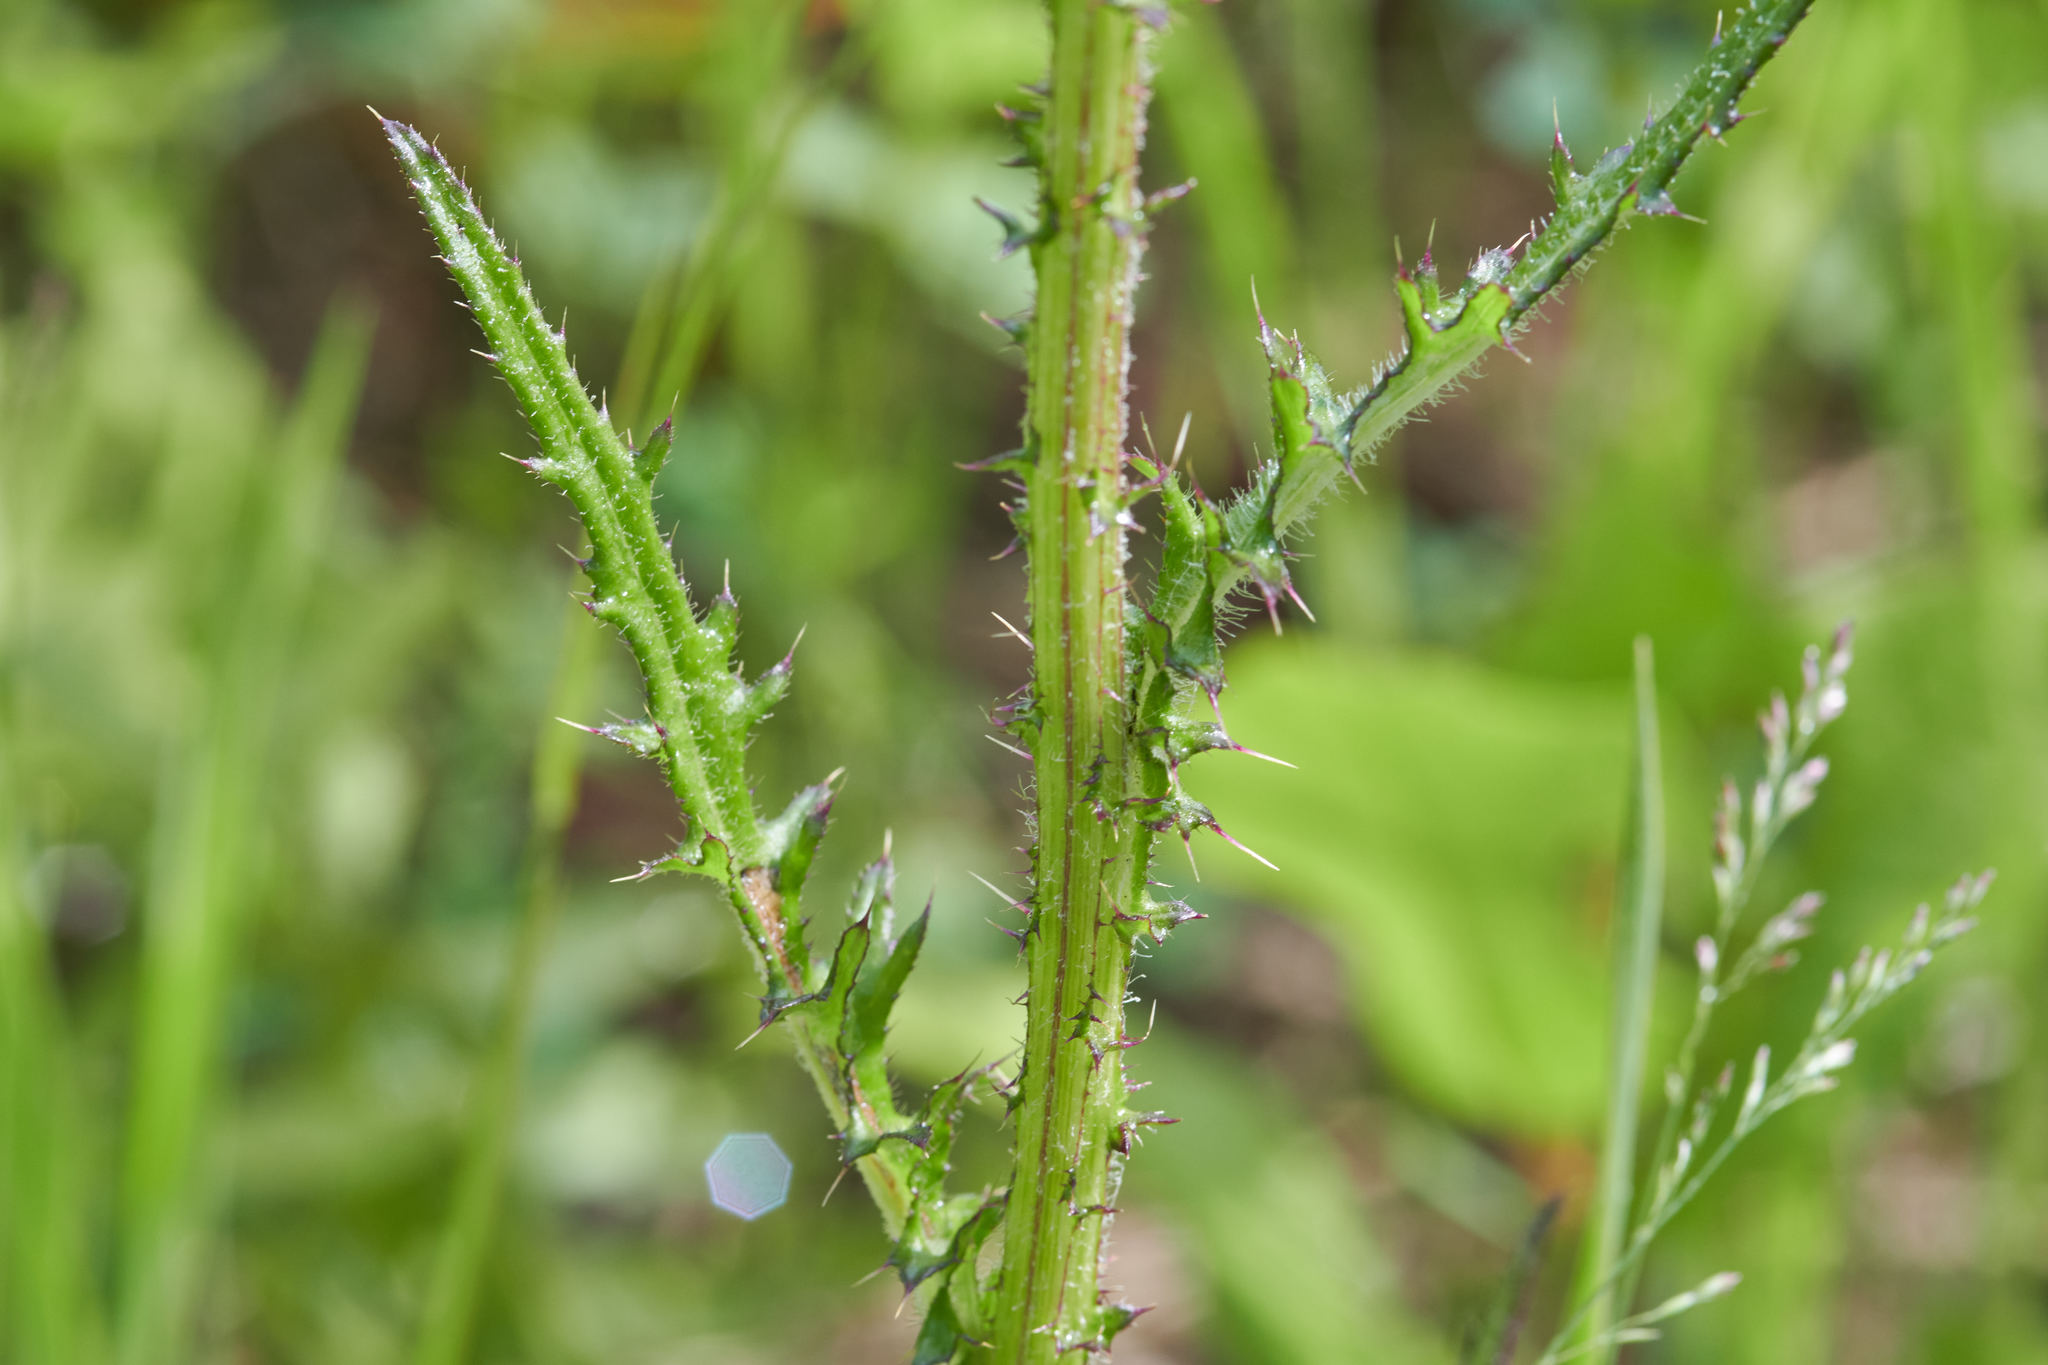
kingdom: Plantae
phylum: Tracheophyta
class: Magnoliopsida
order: Asterales
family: Asteraceae
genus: Cirsium
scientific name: Cirsium palustre
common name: Marsh thistle
